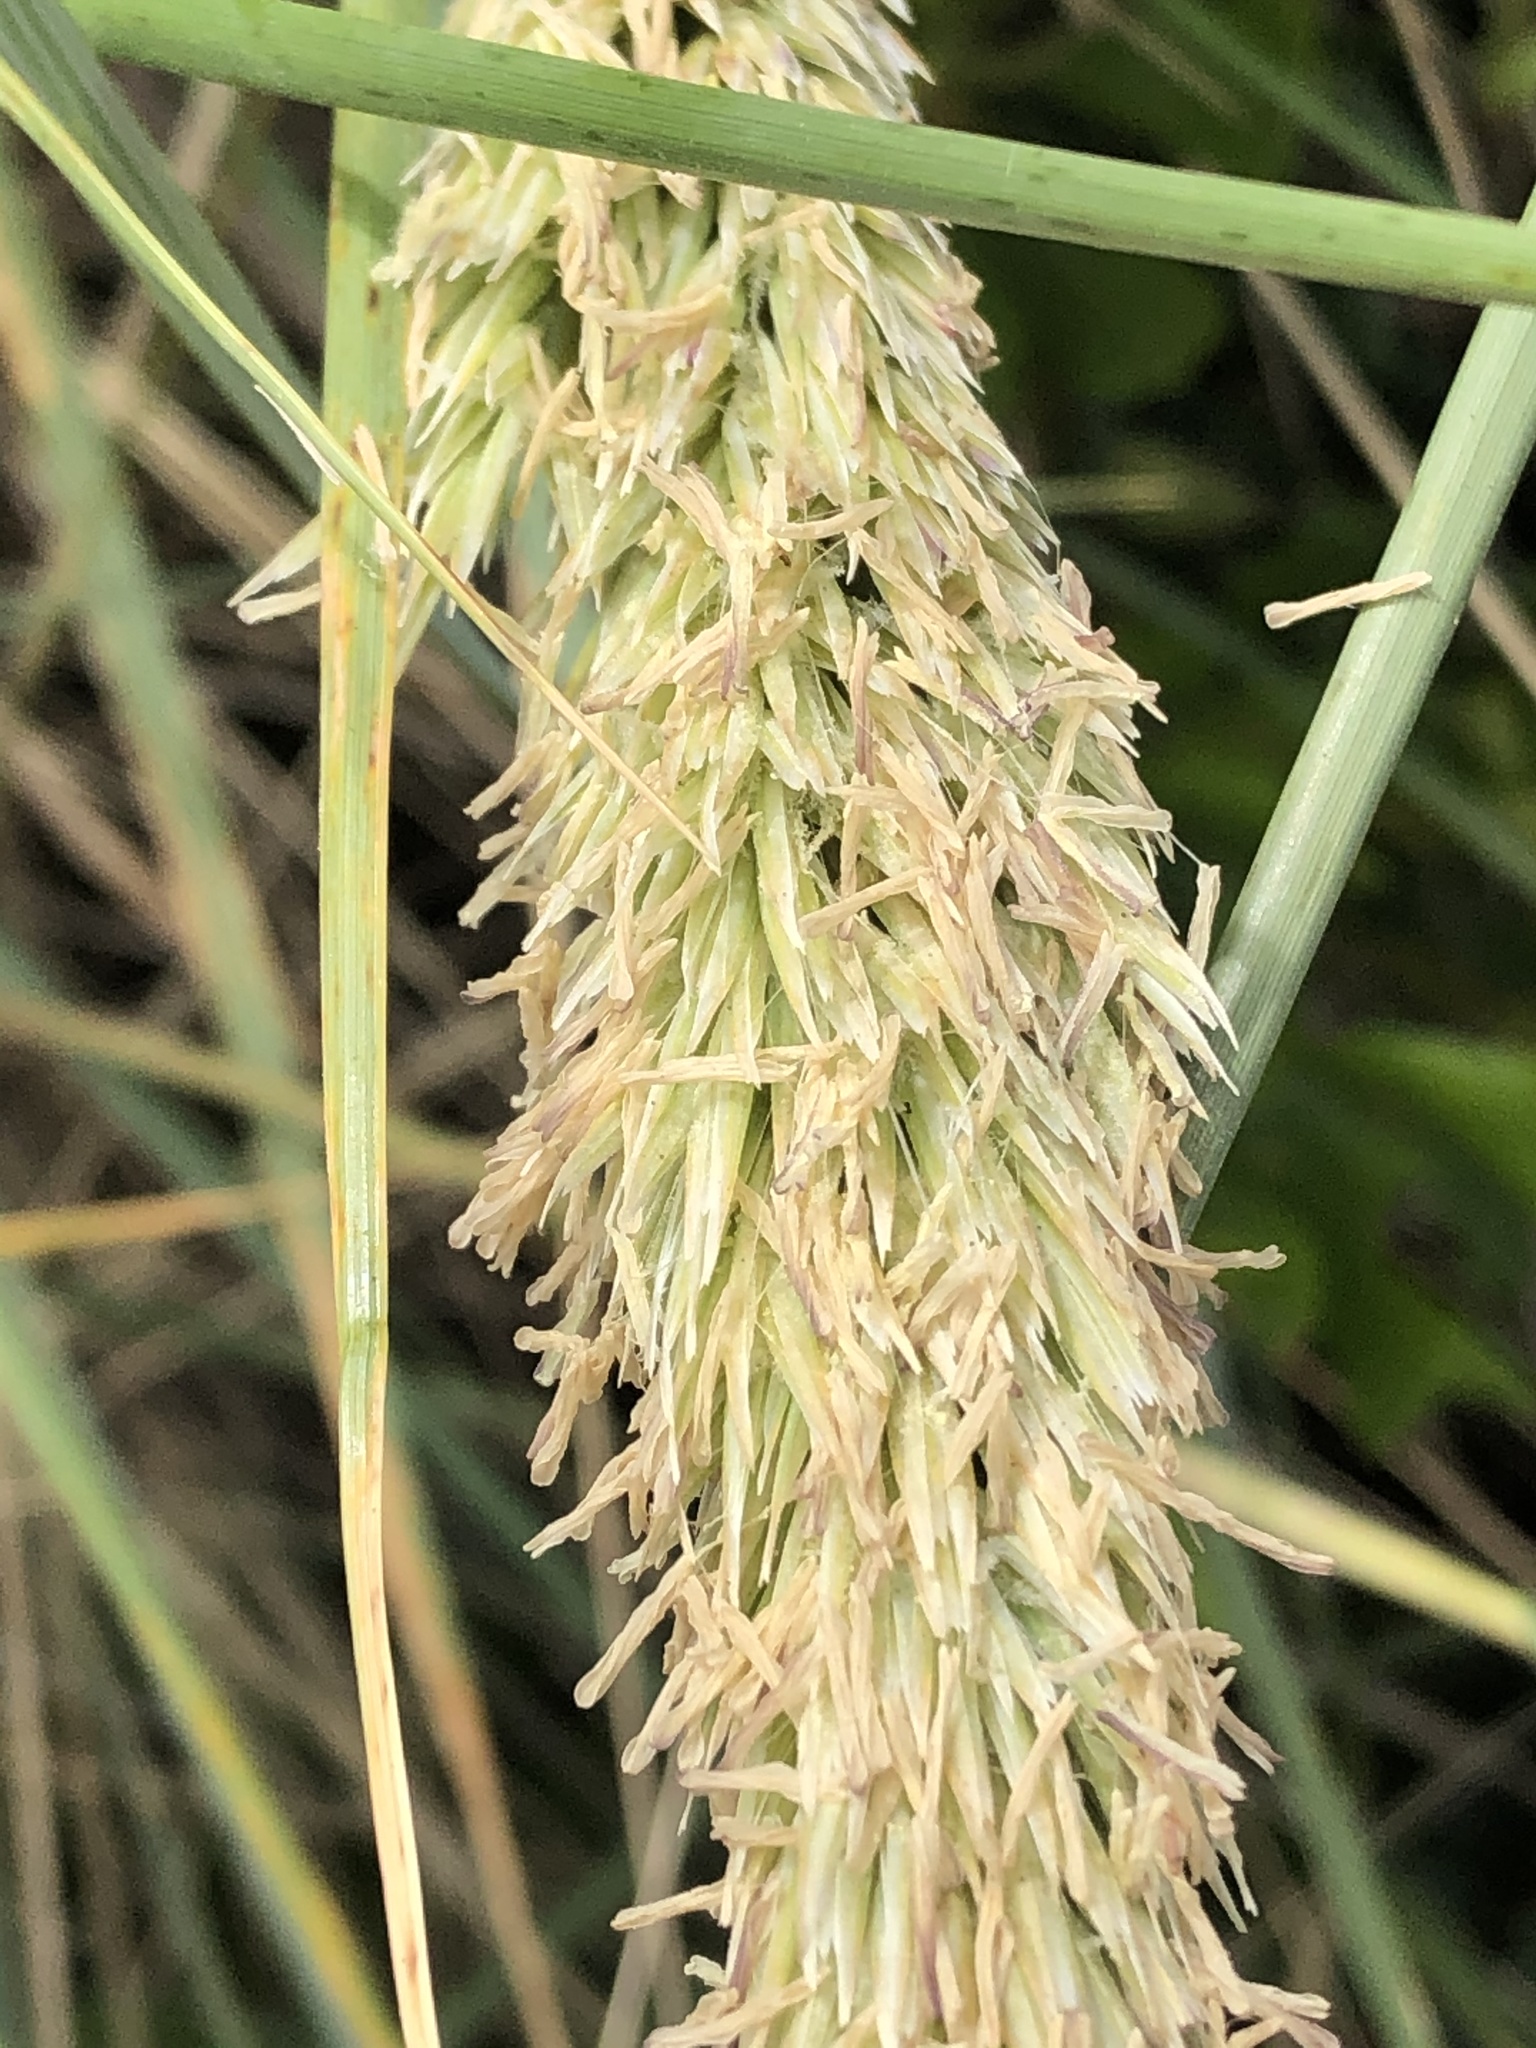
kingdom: Plantae
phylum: Tracheophyta
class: Liliopsida
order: Poales
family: Poaceae
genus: Calamagrostis
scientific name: Calamagrostis arenaria
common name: European beachgrass
